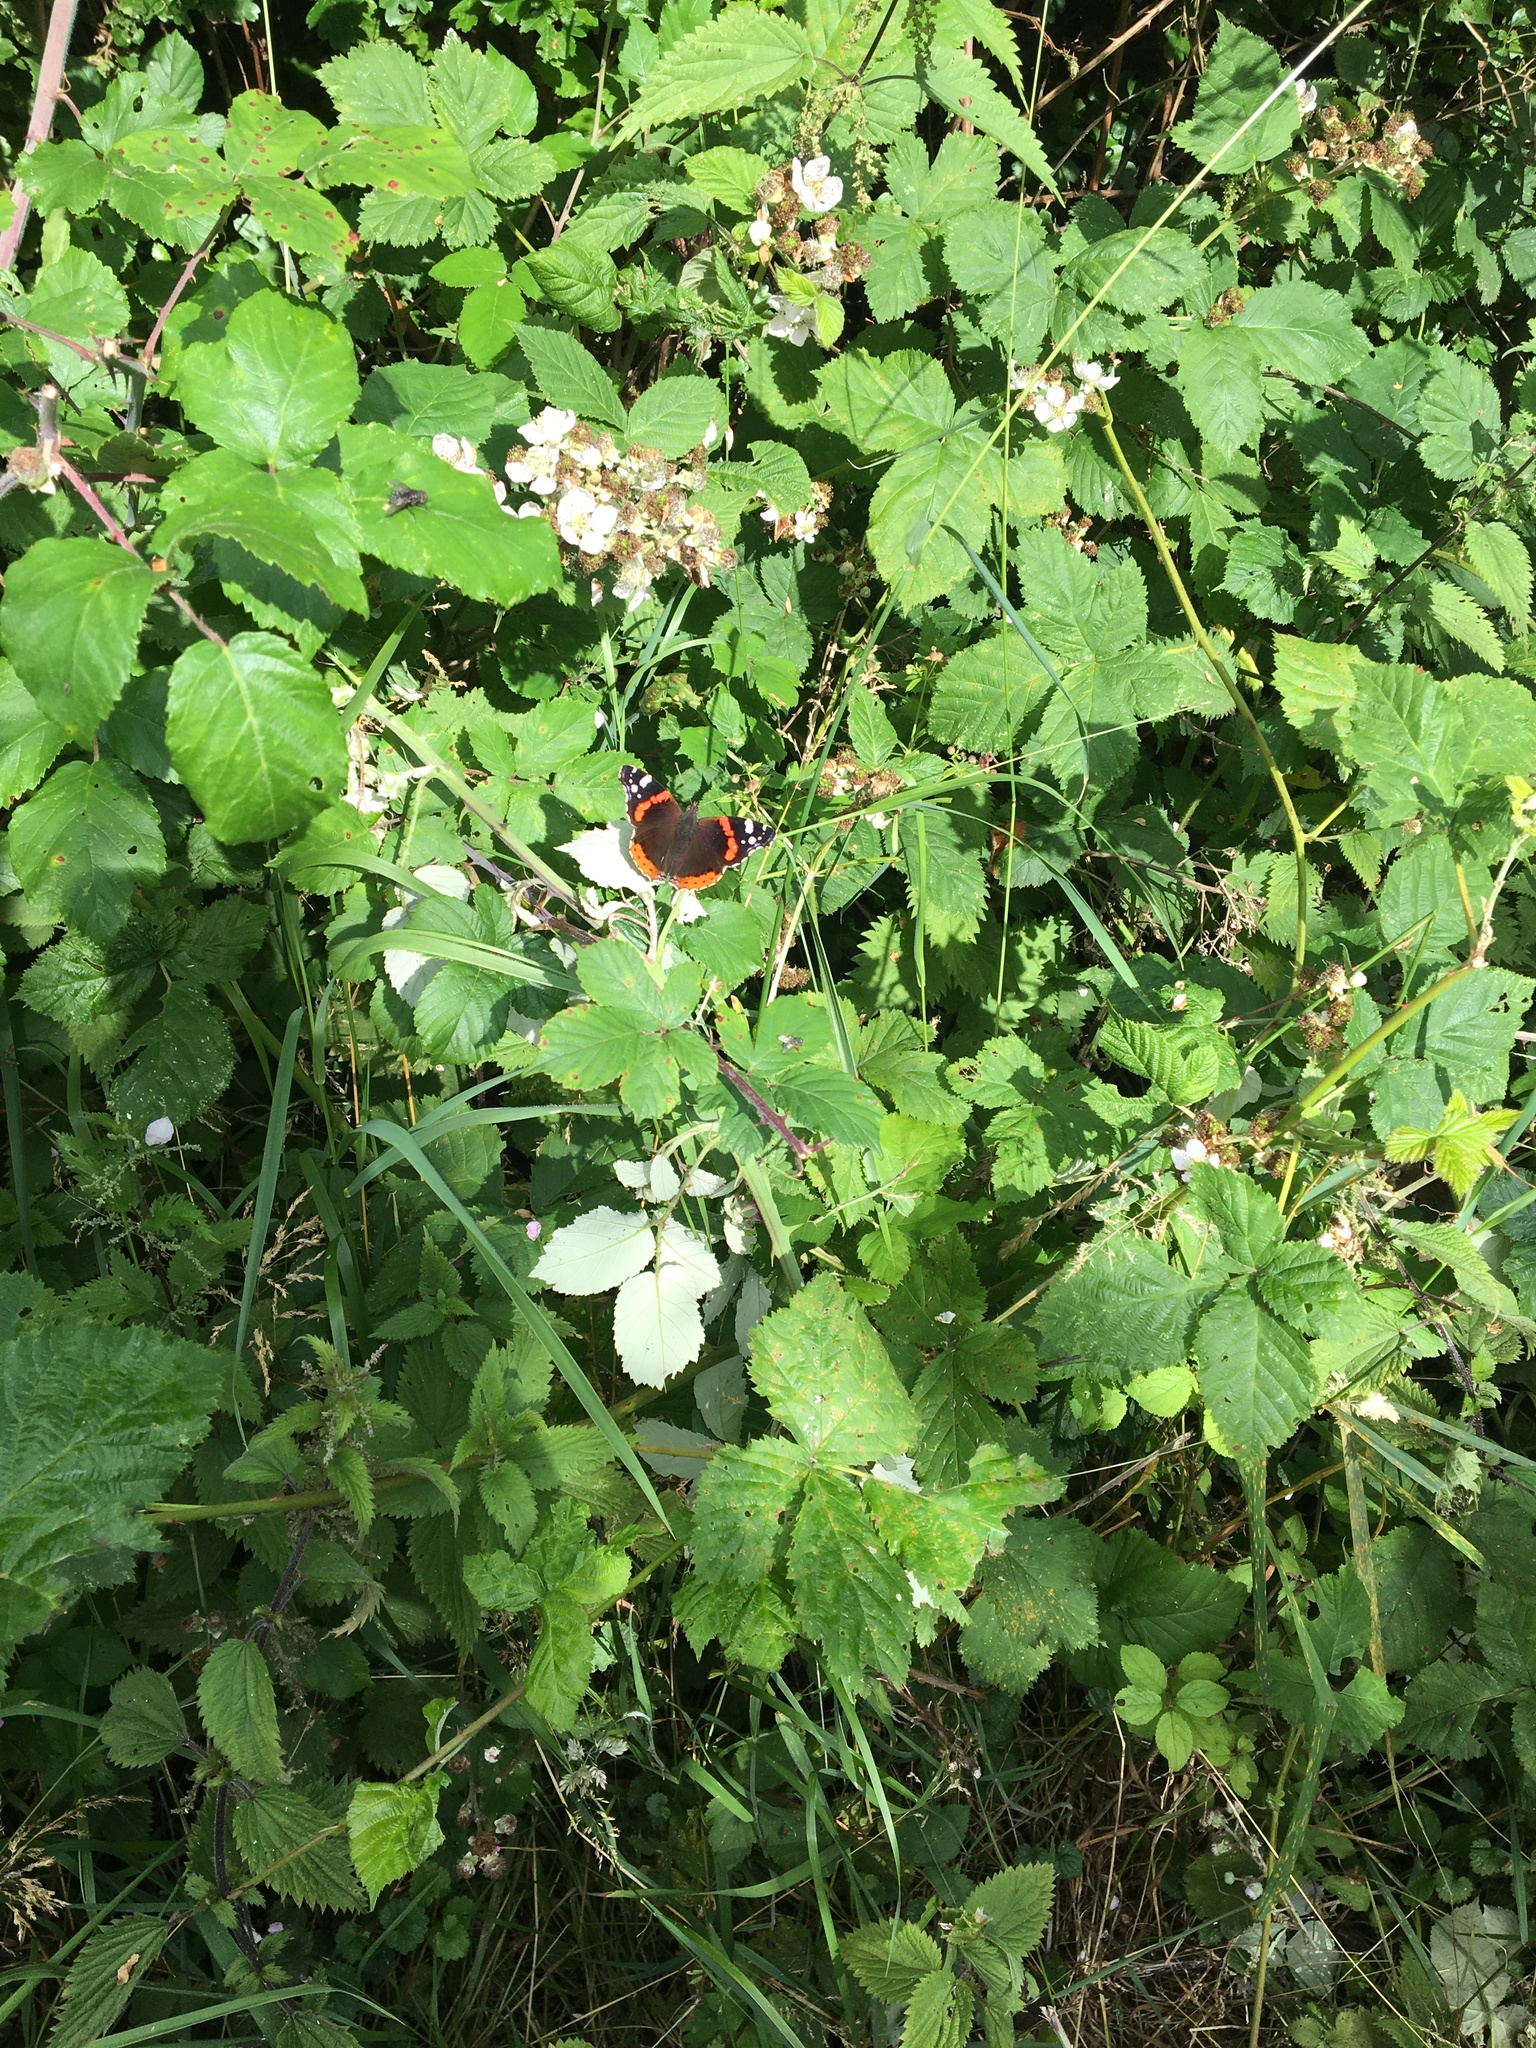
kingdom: Animalia
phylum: Arthropoda
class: Insecta
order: Lepidoptera
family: Nymphalidae
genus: Vanessa
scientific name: Vanessa atalanta
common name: Red admiral
